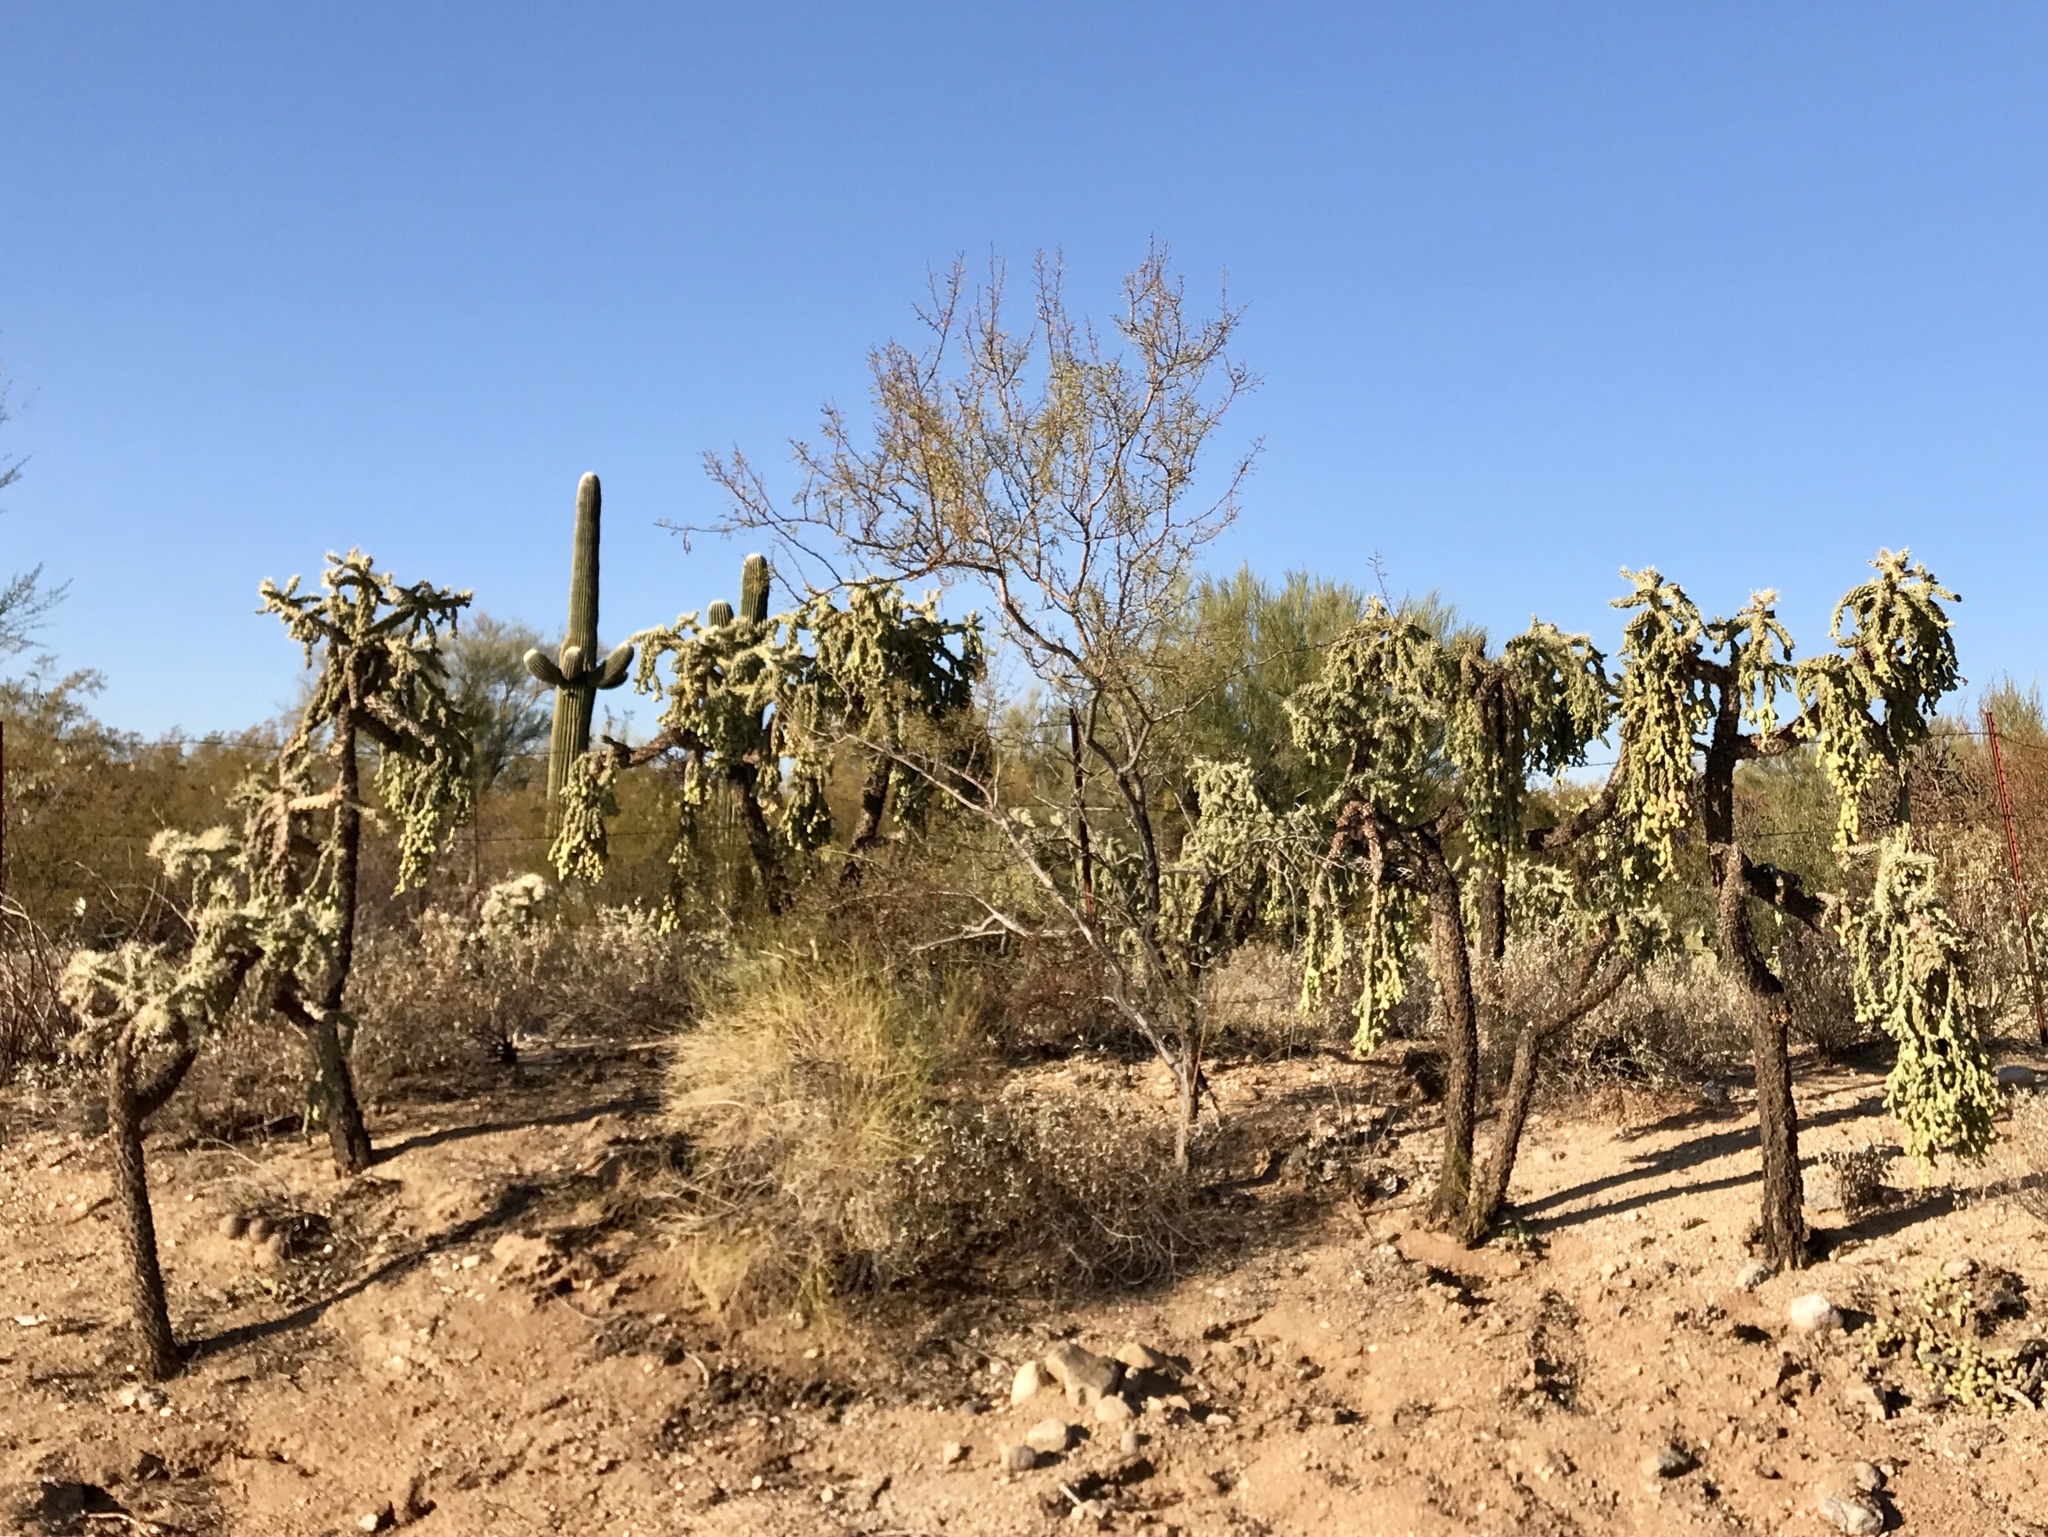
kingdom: Plantae
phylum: Tracheophyta
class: Magnoliopsida
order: Caryophyllales
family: Cactaceae
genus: Cylindropuntia
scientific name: Cylindropuntia fulgida
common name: Jumping cholla
